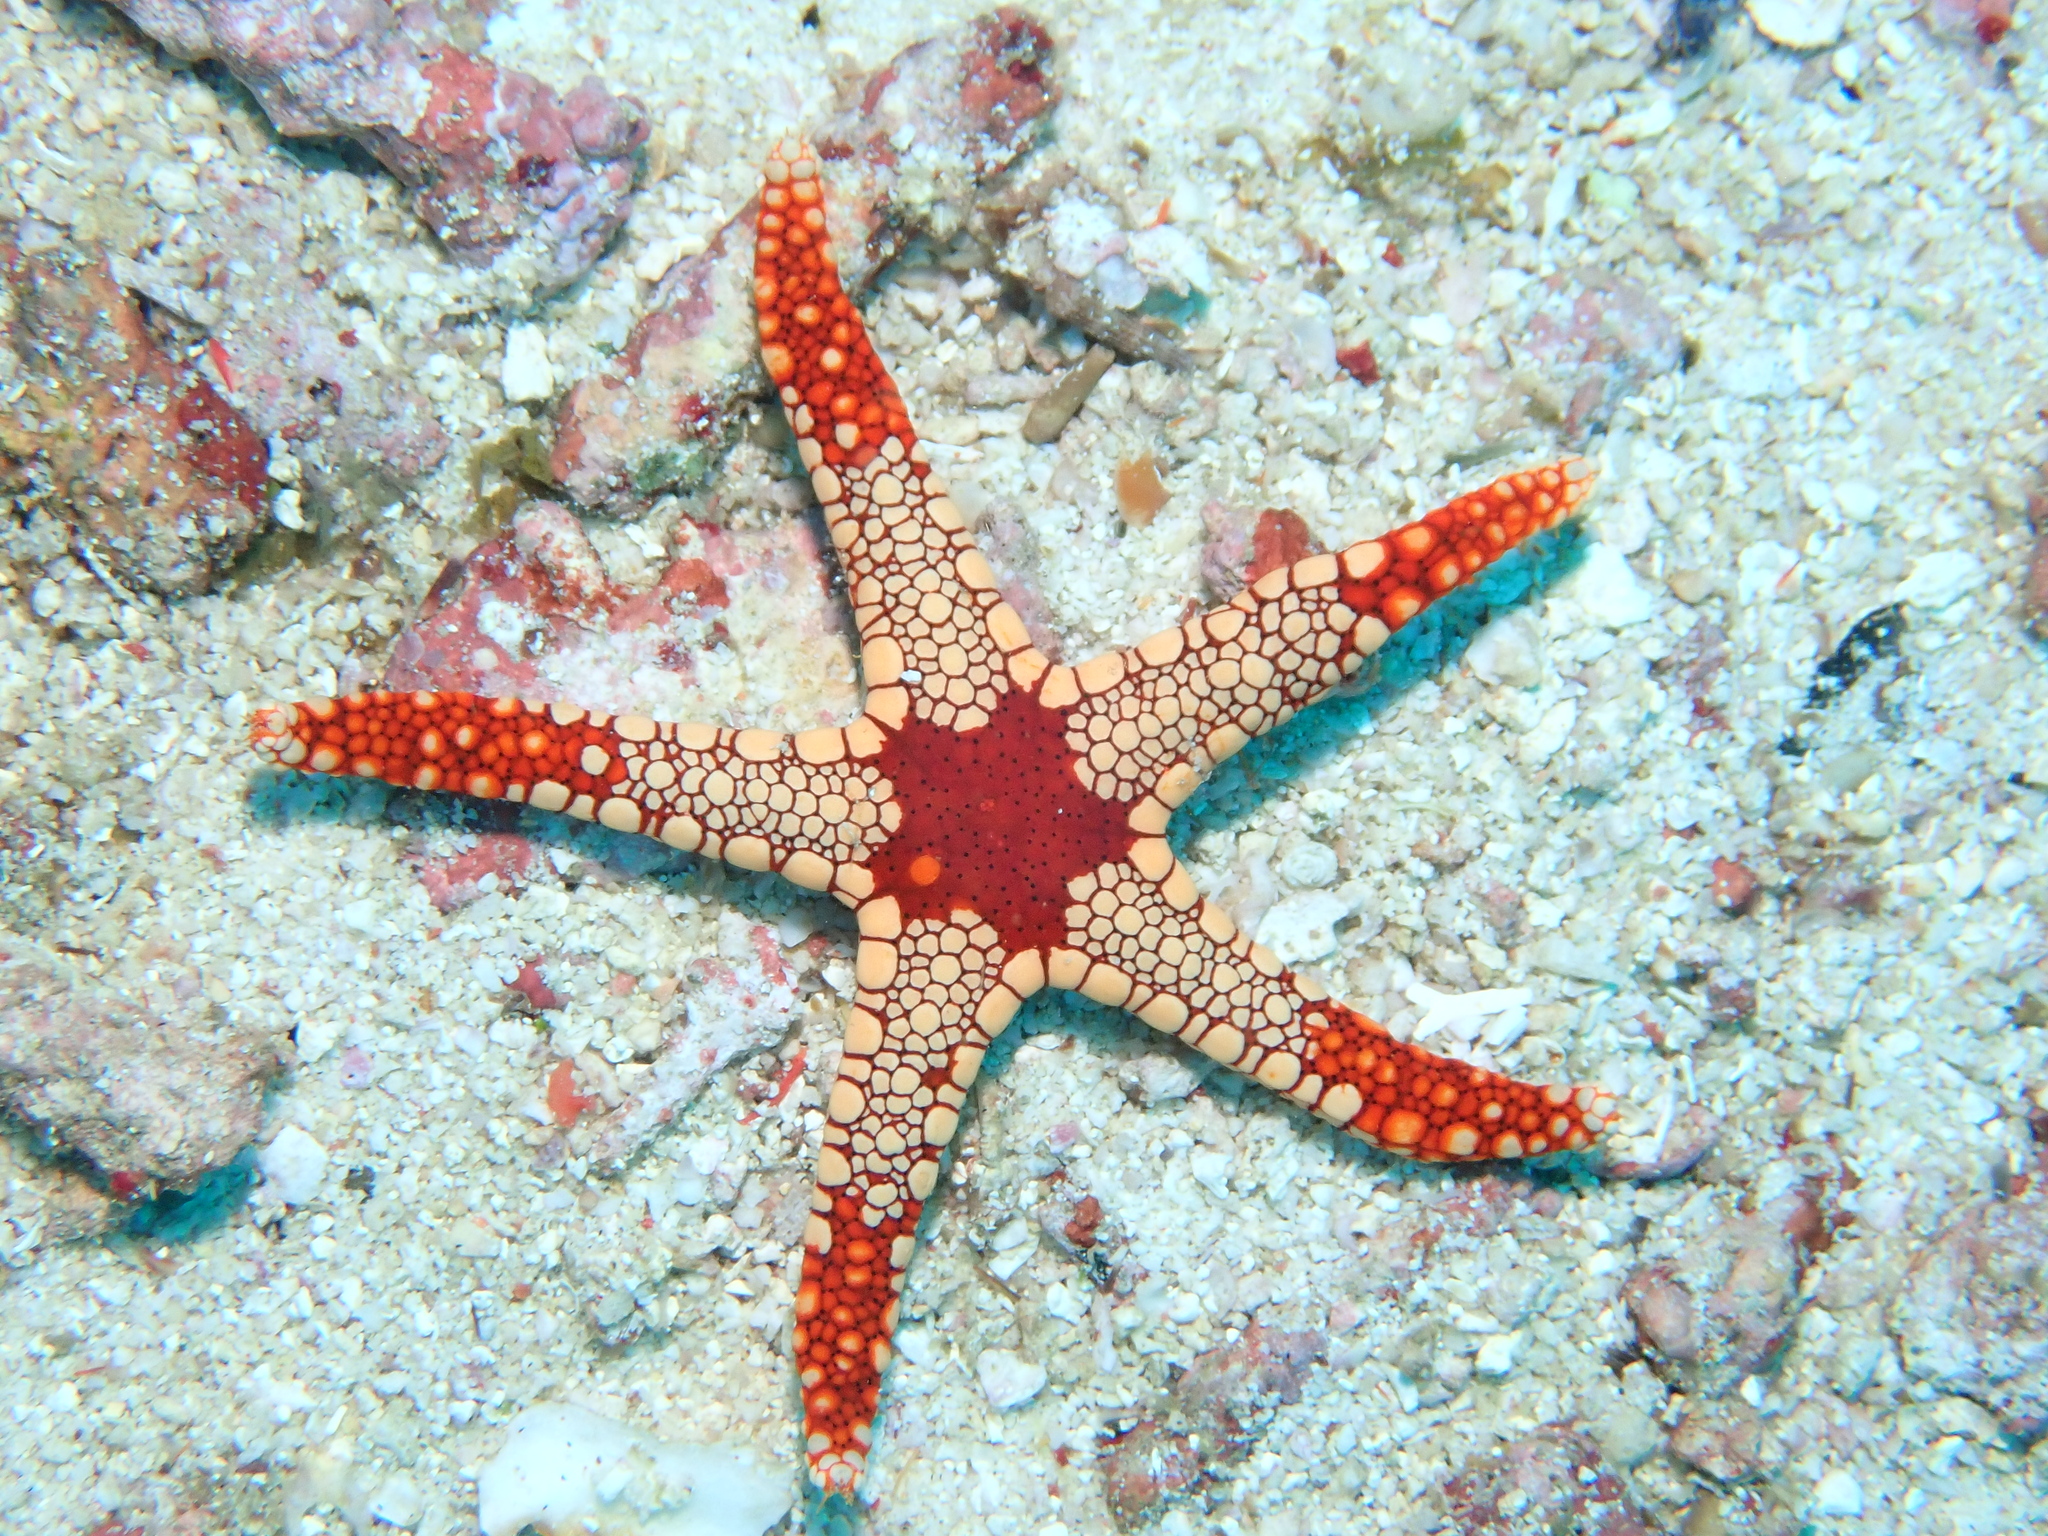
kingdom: Animalia
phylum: Echinodermata
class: Asteroidea
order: Valvatida
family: Goniasteridae
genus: Fromia
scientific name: Fromia monilis
